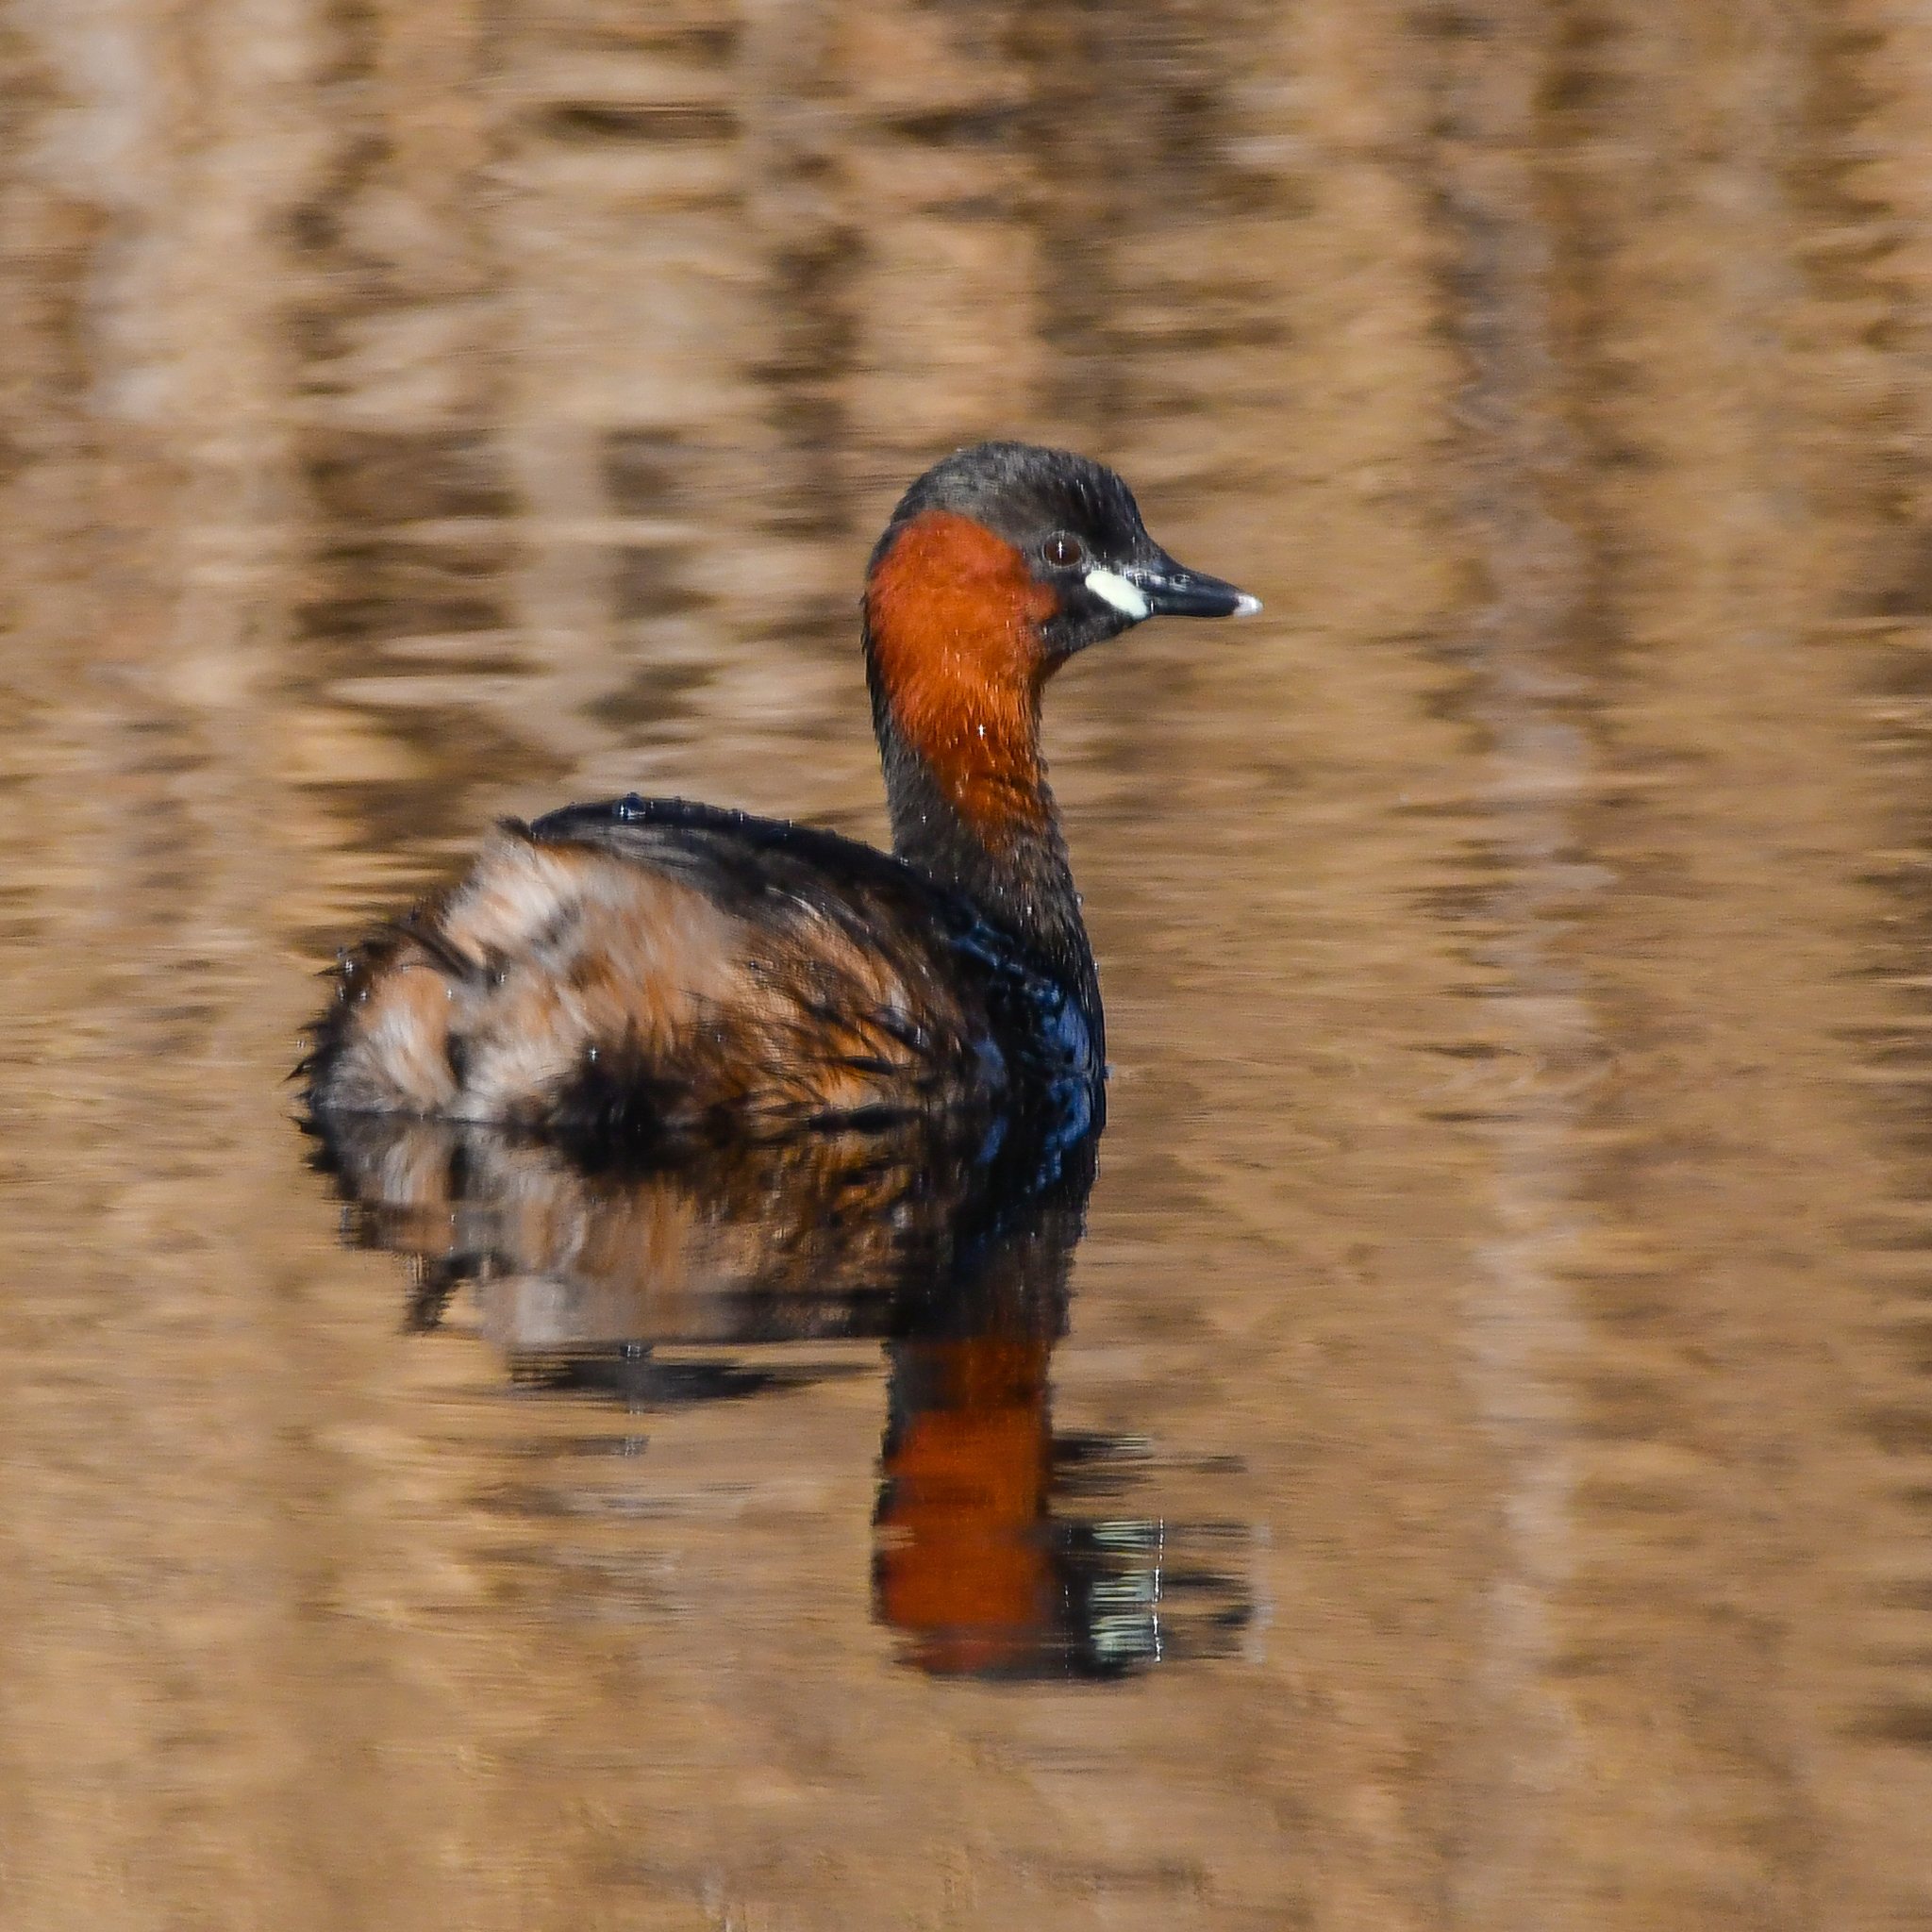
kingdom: Animalia
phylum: Chordata
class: Aves
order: Podicipediformes
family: Podicipedidae
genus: Tachybaptus
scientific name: Tachybaptus ruficollis
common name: Little grebe
